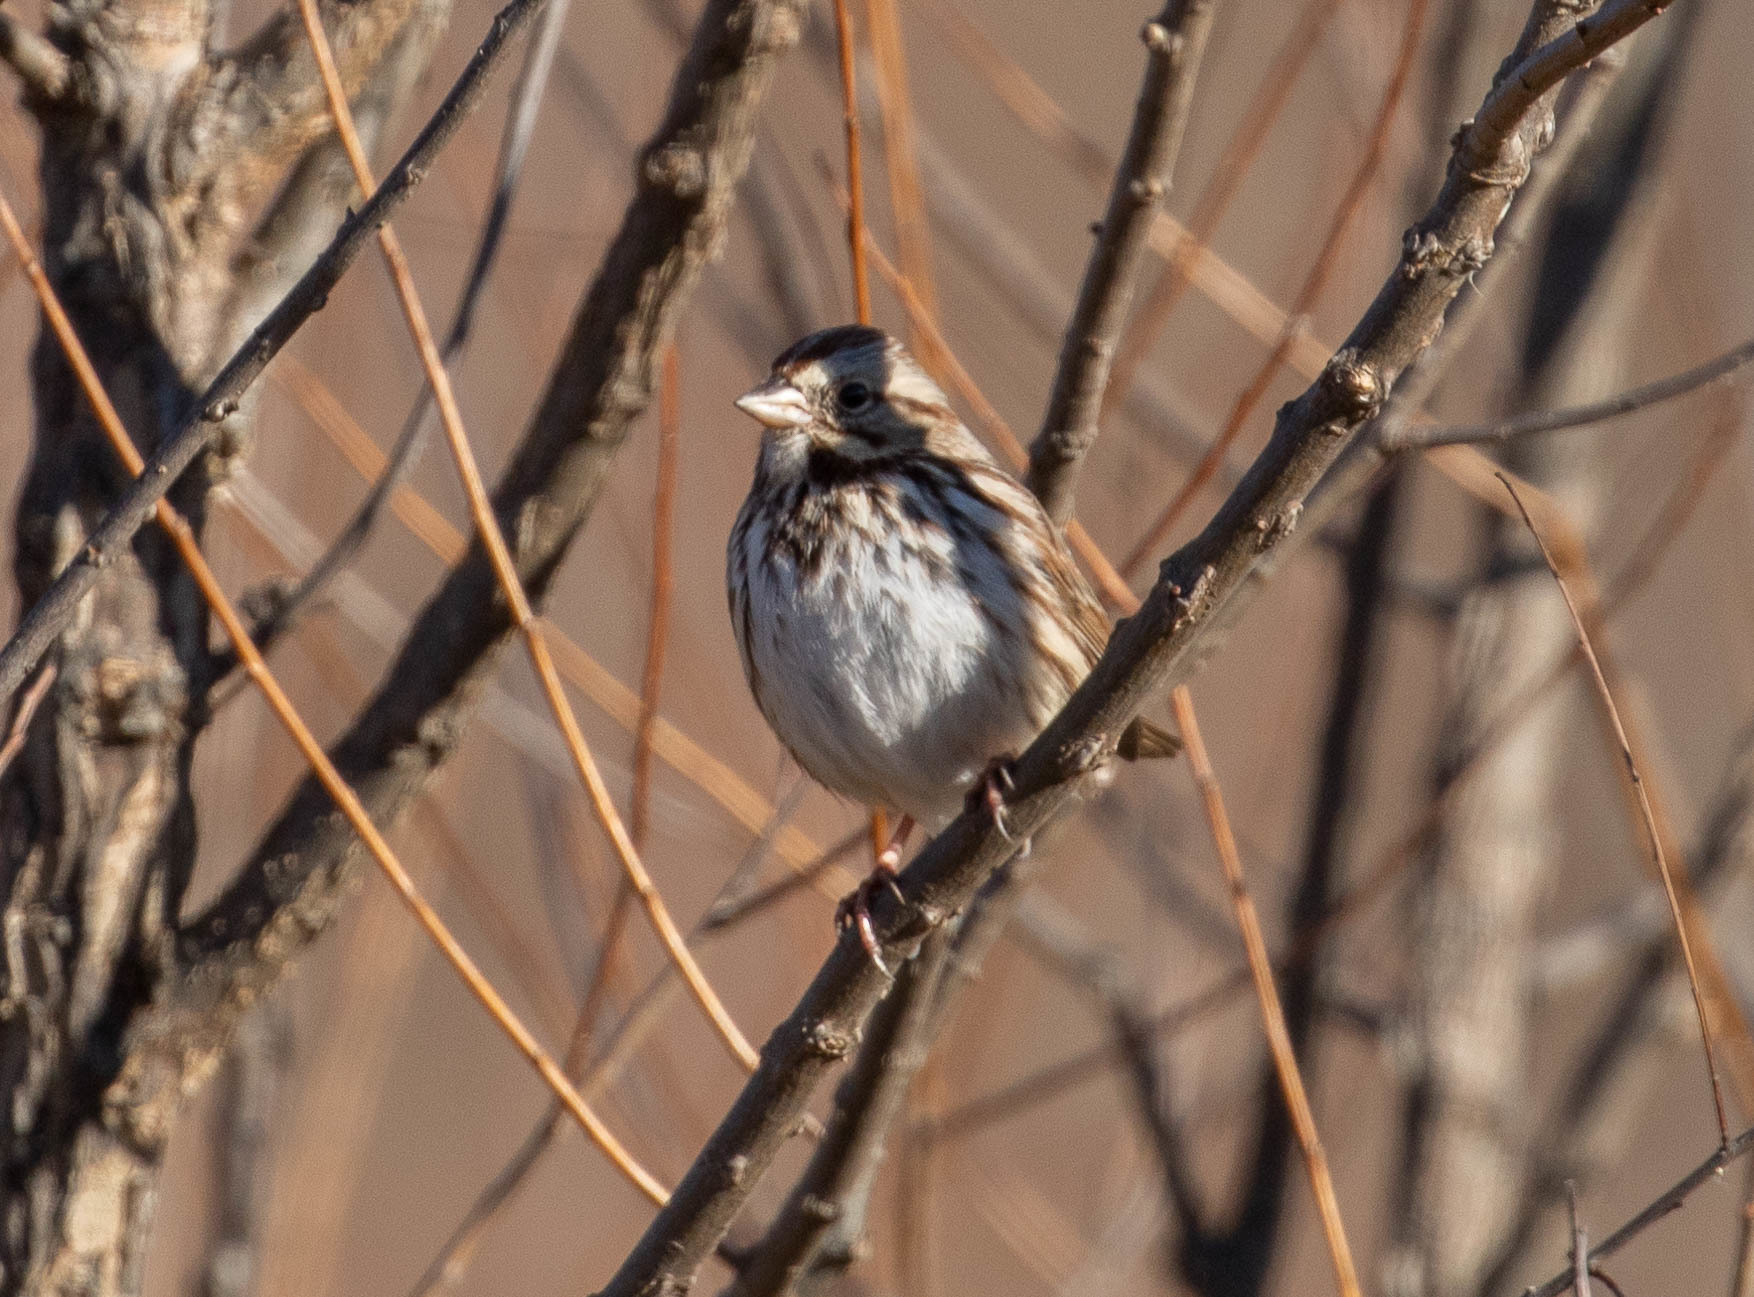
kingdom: Animalia
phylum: Chordata
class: Aves
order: Passeriformes
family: Passerellidae
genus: Melospiza
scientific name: Melospiza melodia
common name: Song sparrow
